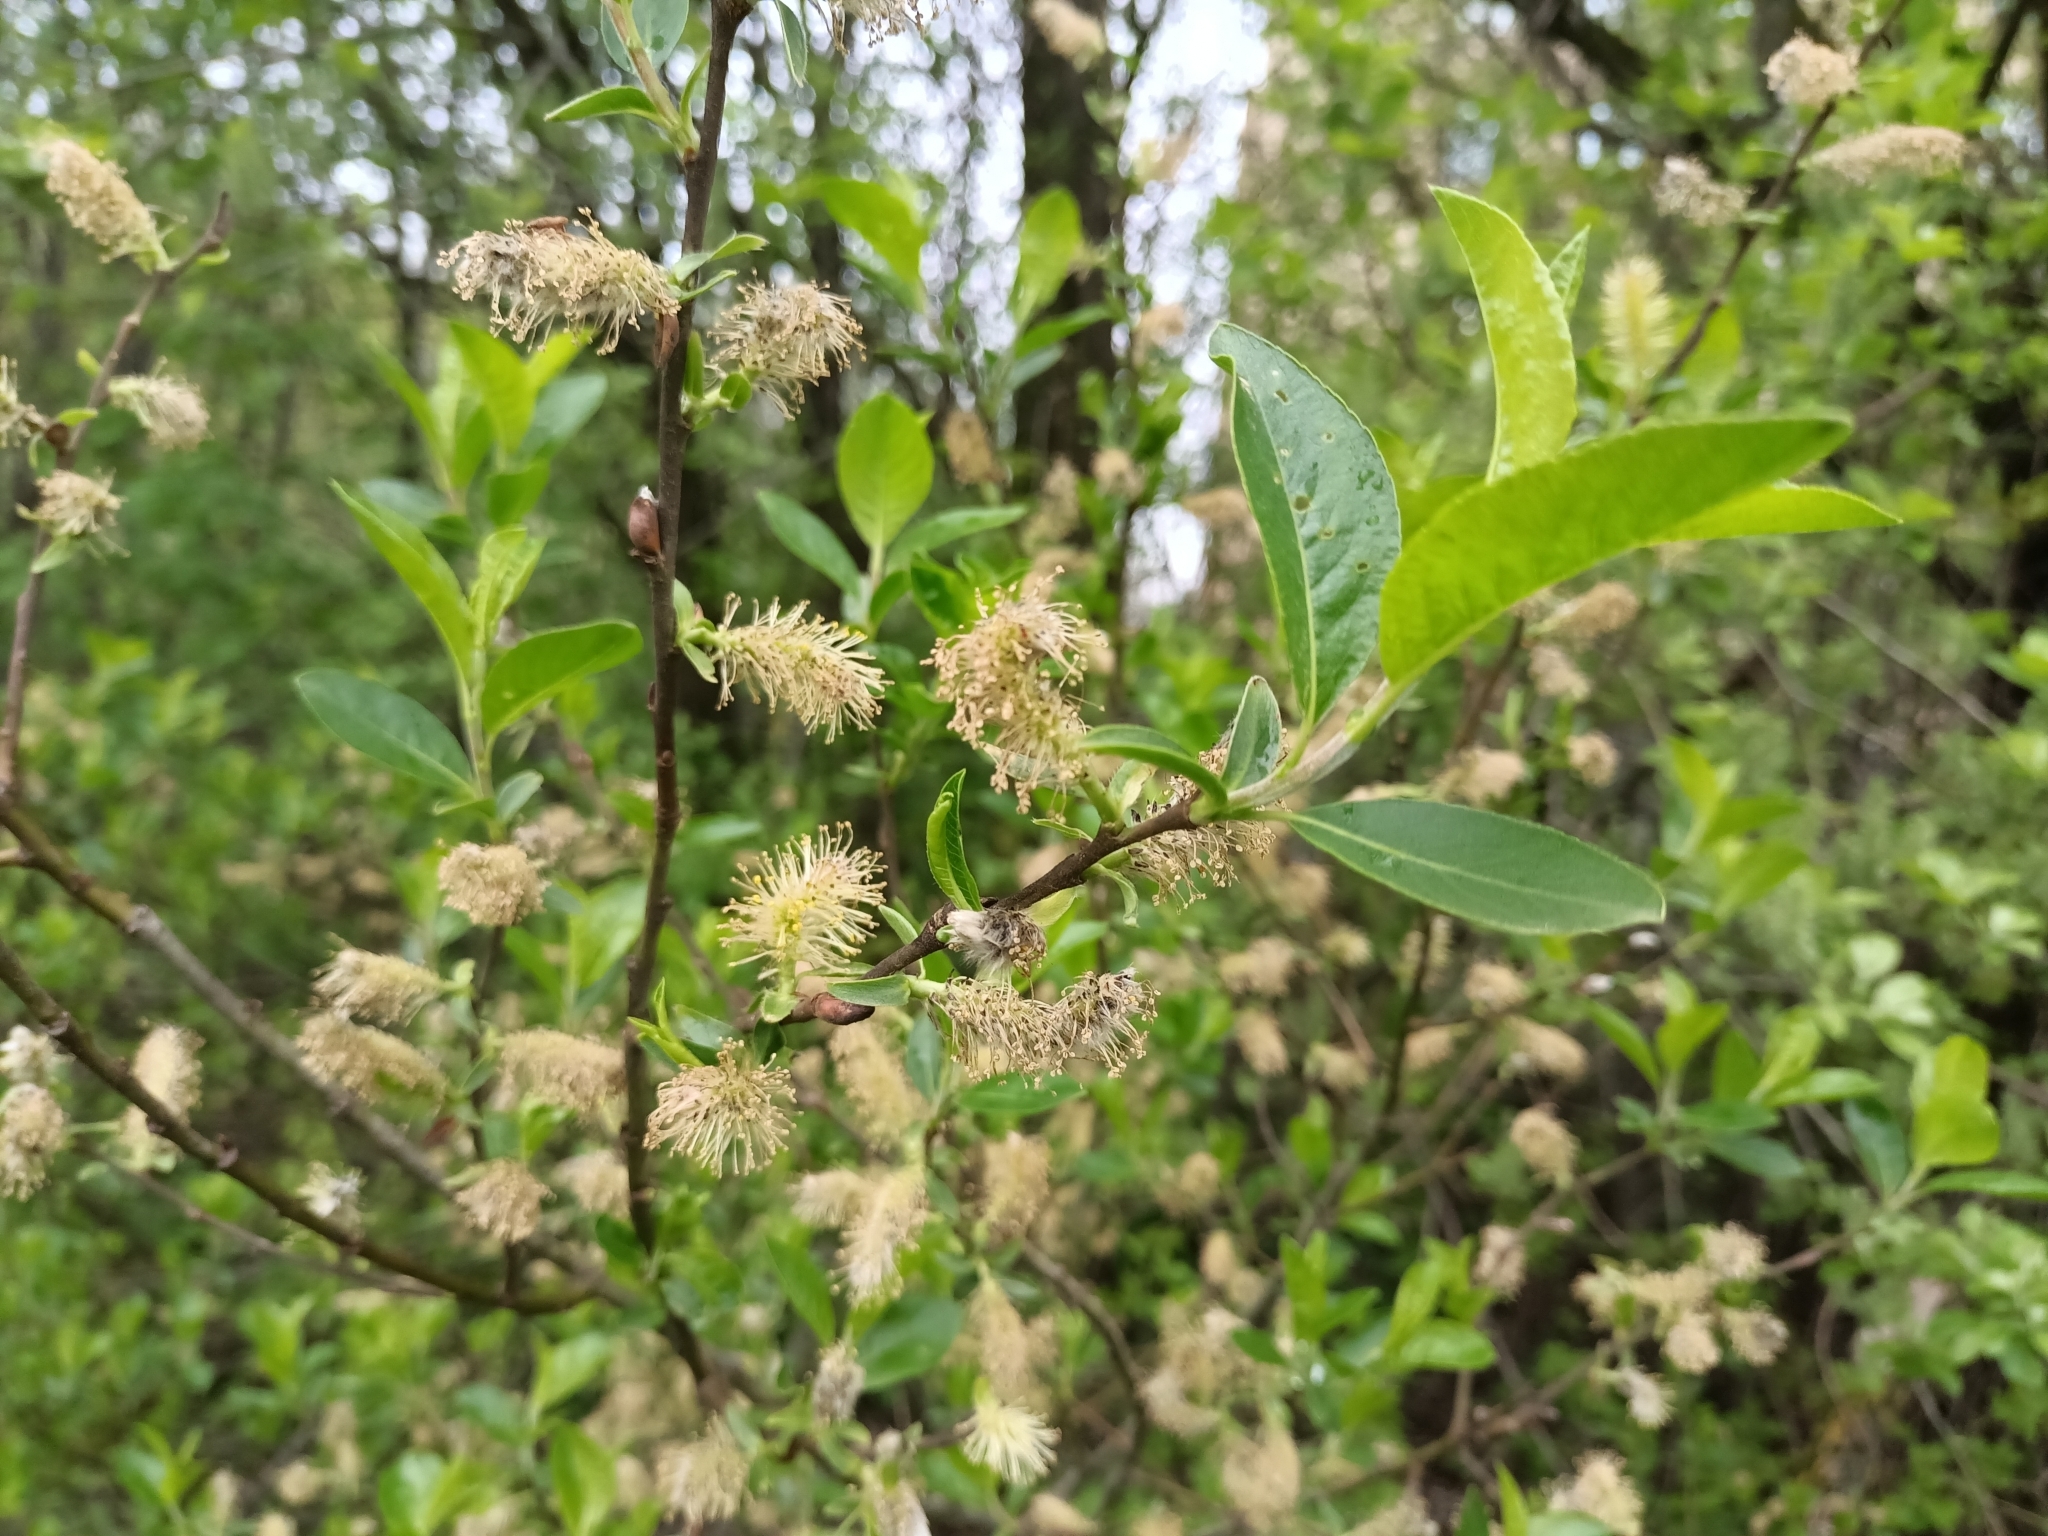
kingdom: Plantae
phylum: Tracheophyta
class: Magnoliopsida
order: Malpighiales
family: Salicaceae
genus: Salix
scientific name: Salix myrsinifolia
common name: Dark-leaved willow
